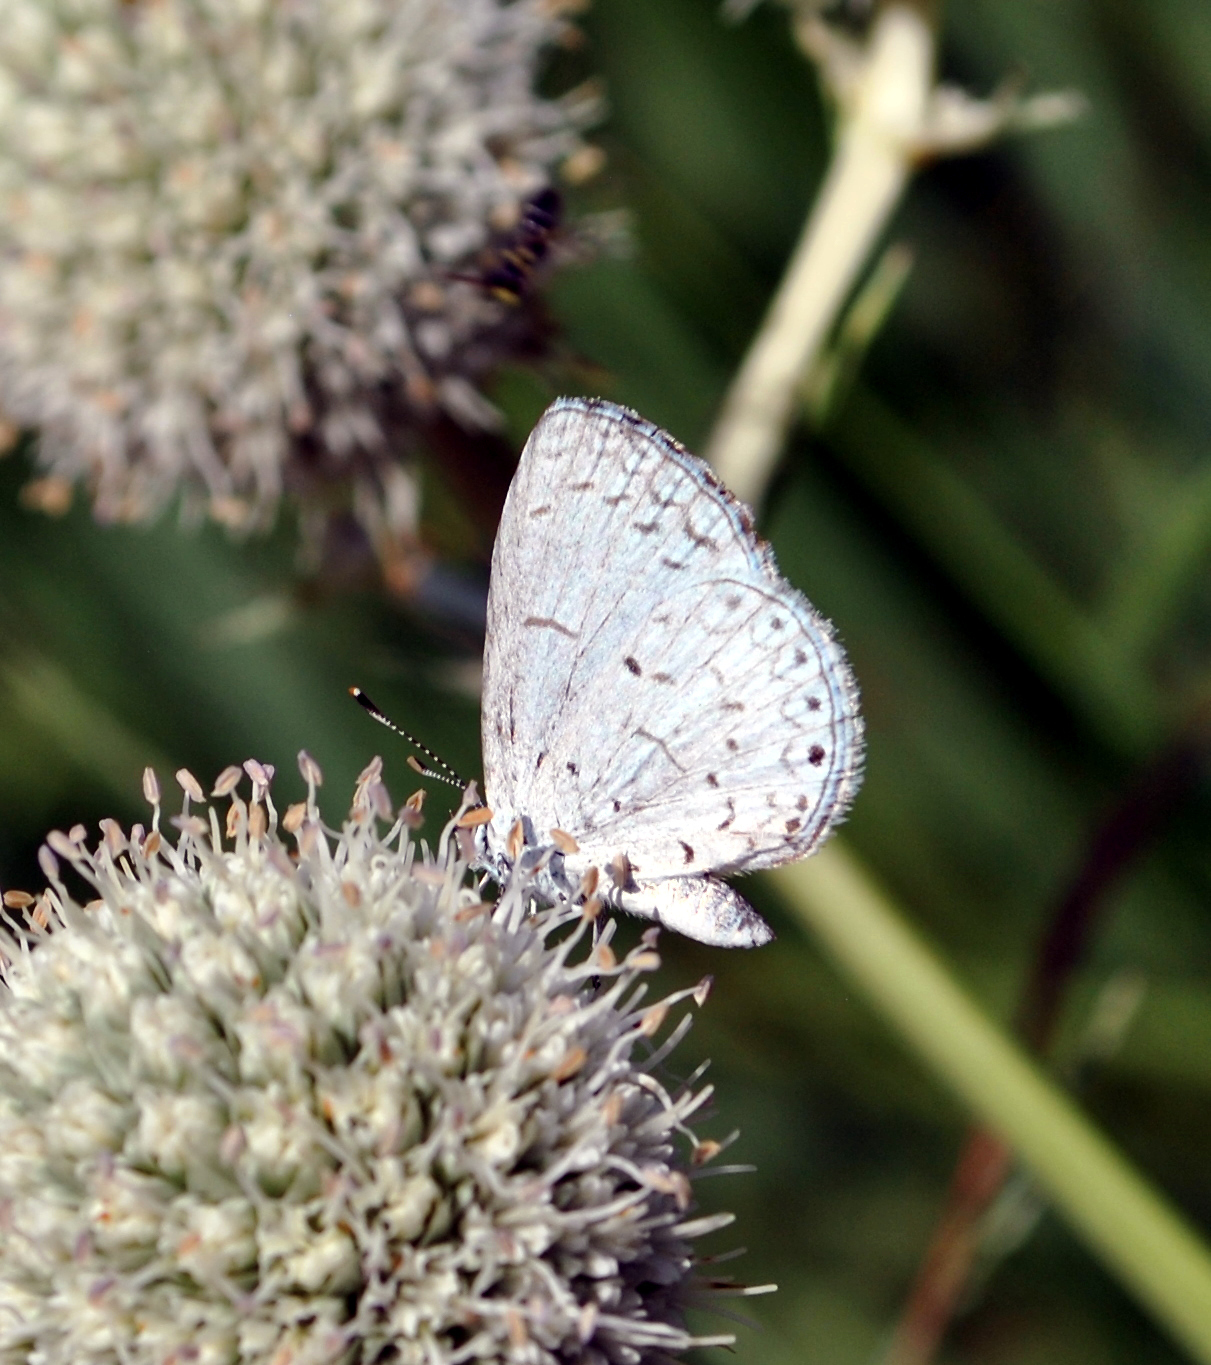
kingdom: Animalia
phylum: Arthropoda
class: Insecta
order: Lepidoptera
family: Lycaenidae
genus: Cyaniris
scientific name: Cyaniris neglecta
